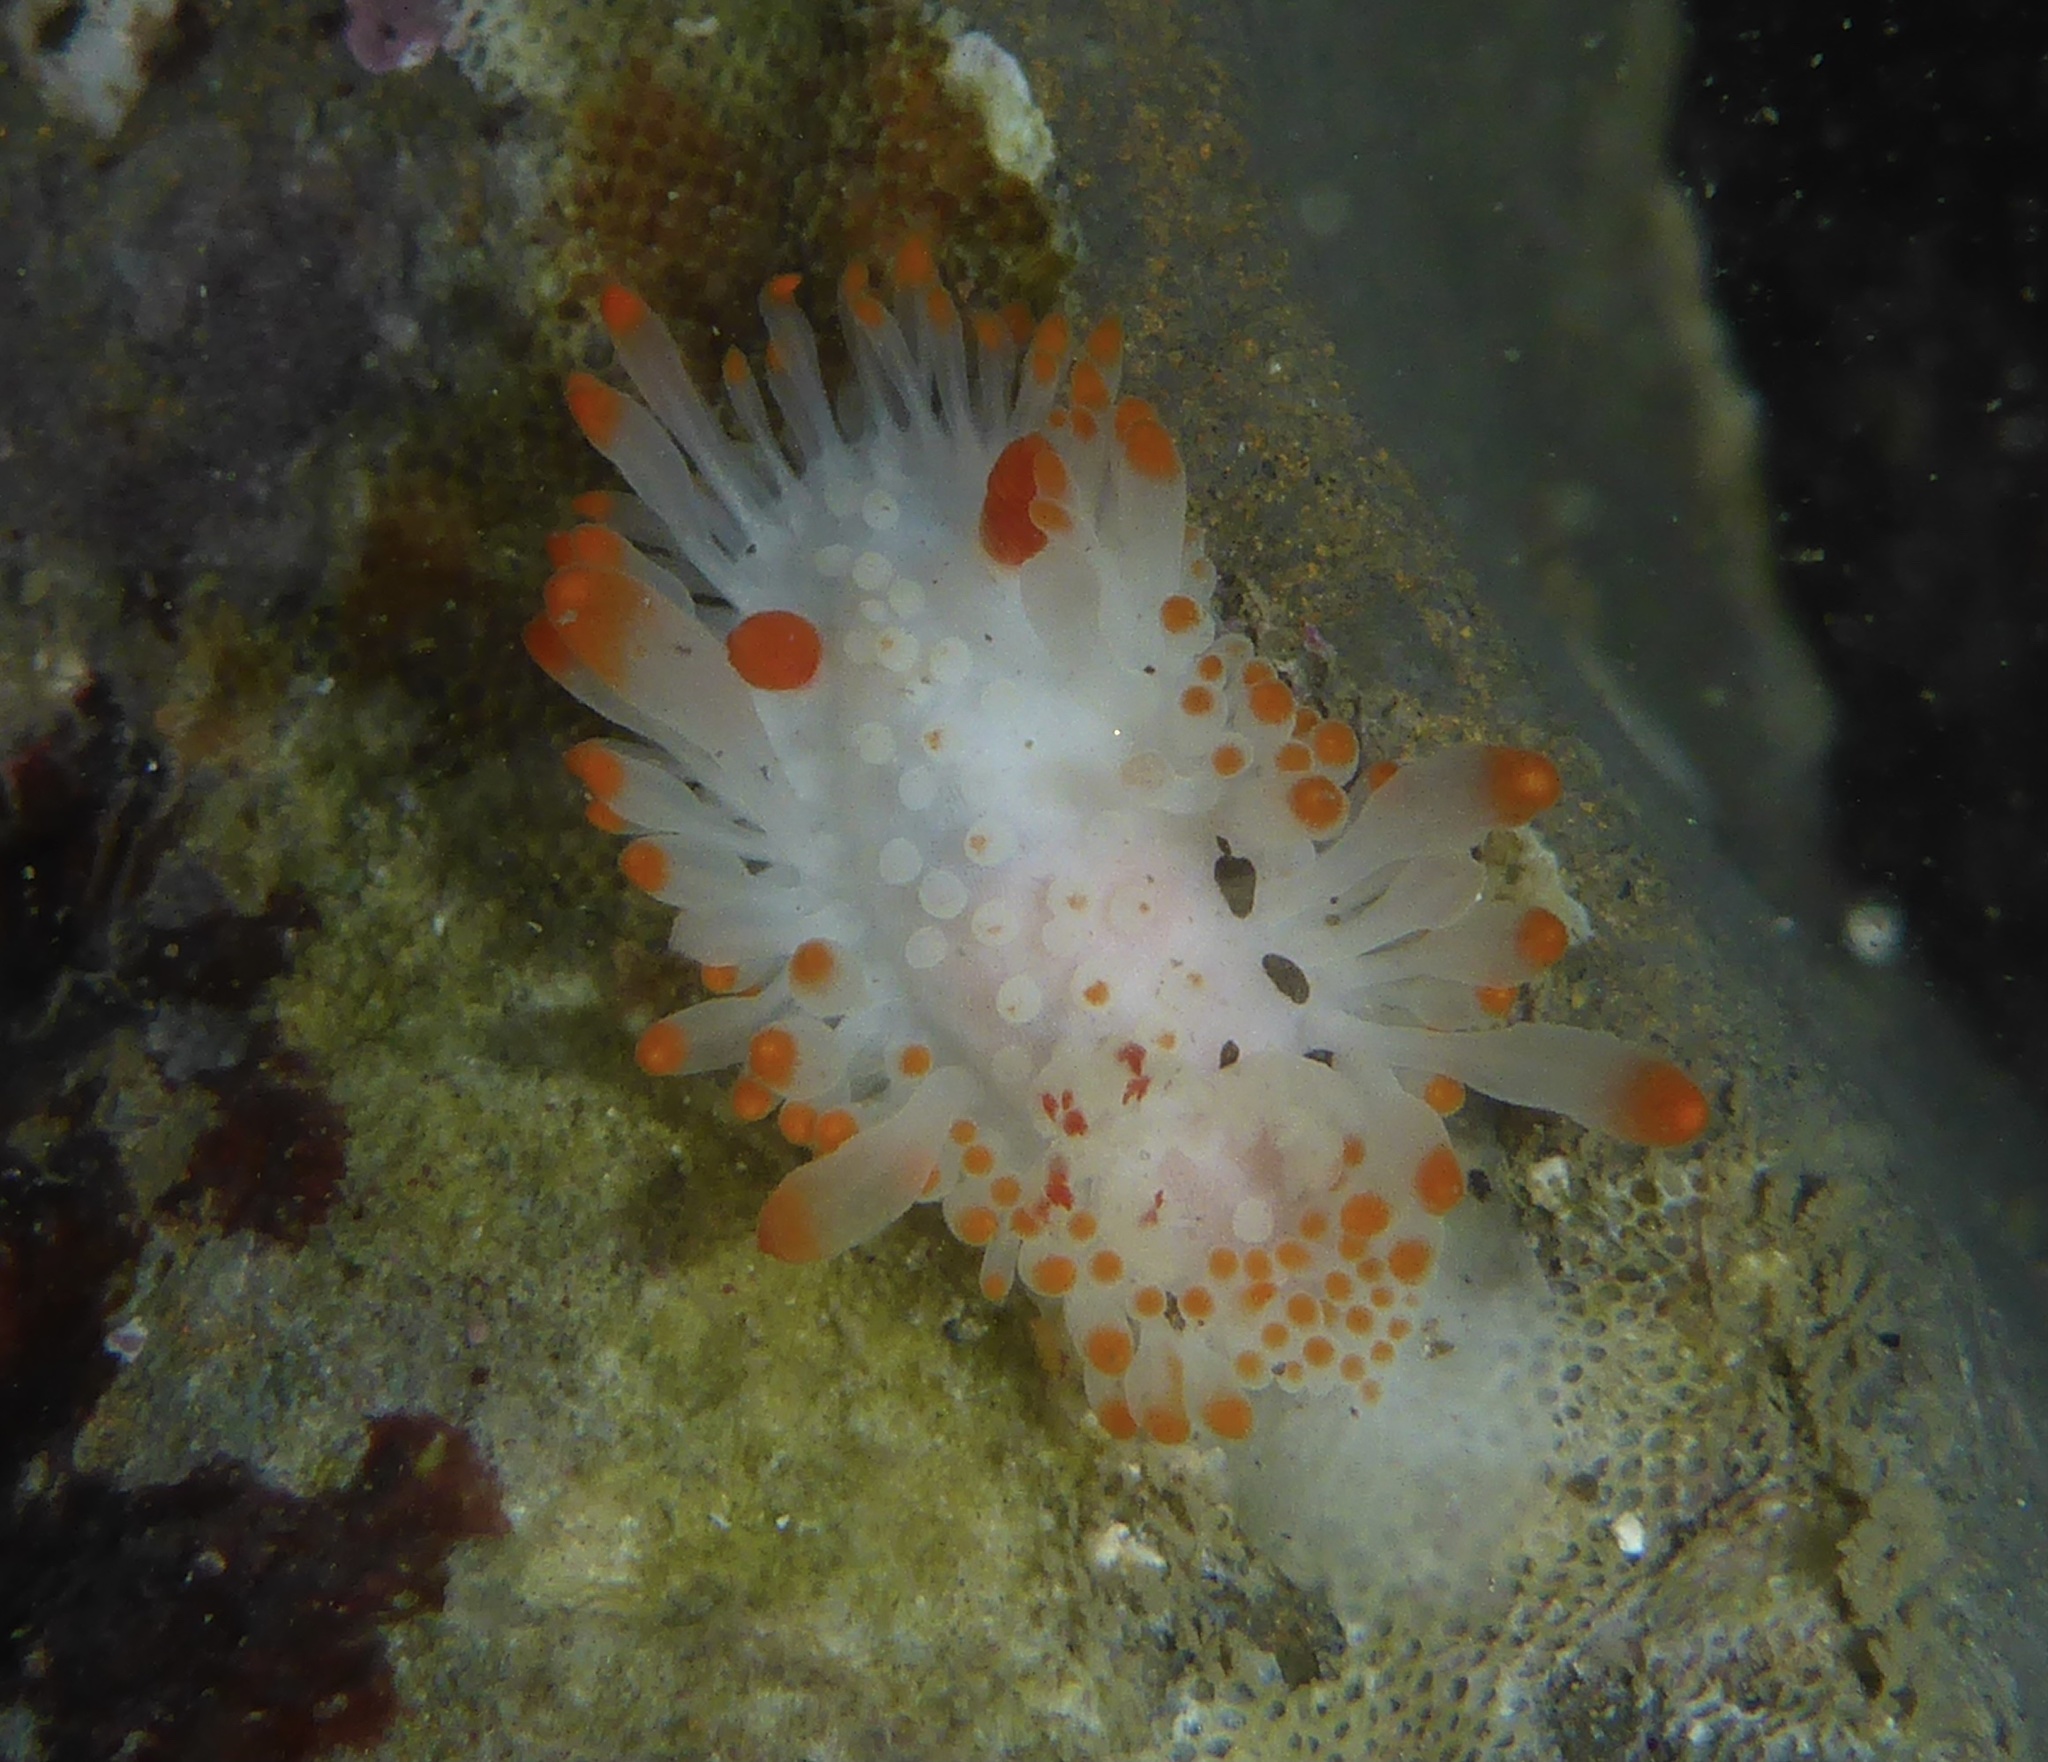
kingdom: Animalia
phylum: Mollusca
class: Gastropoda
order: Nudibranchia
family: Polyceridae
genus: Limacia
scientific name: Limacia cockerelli
